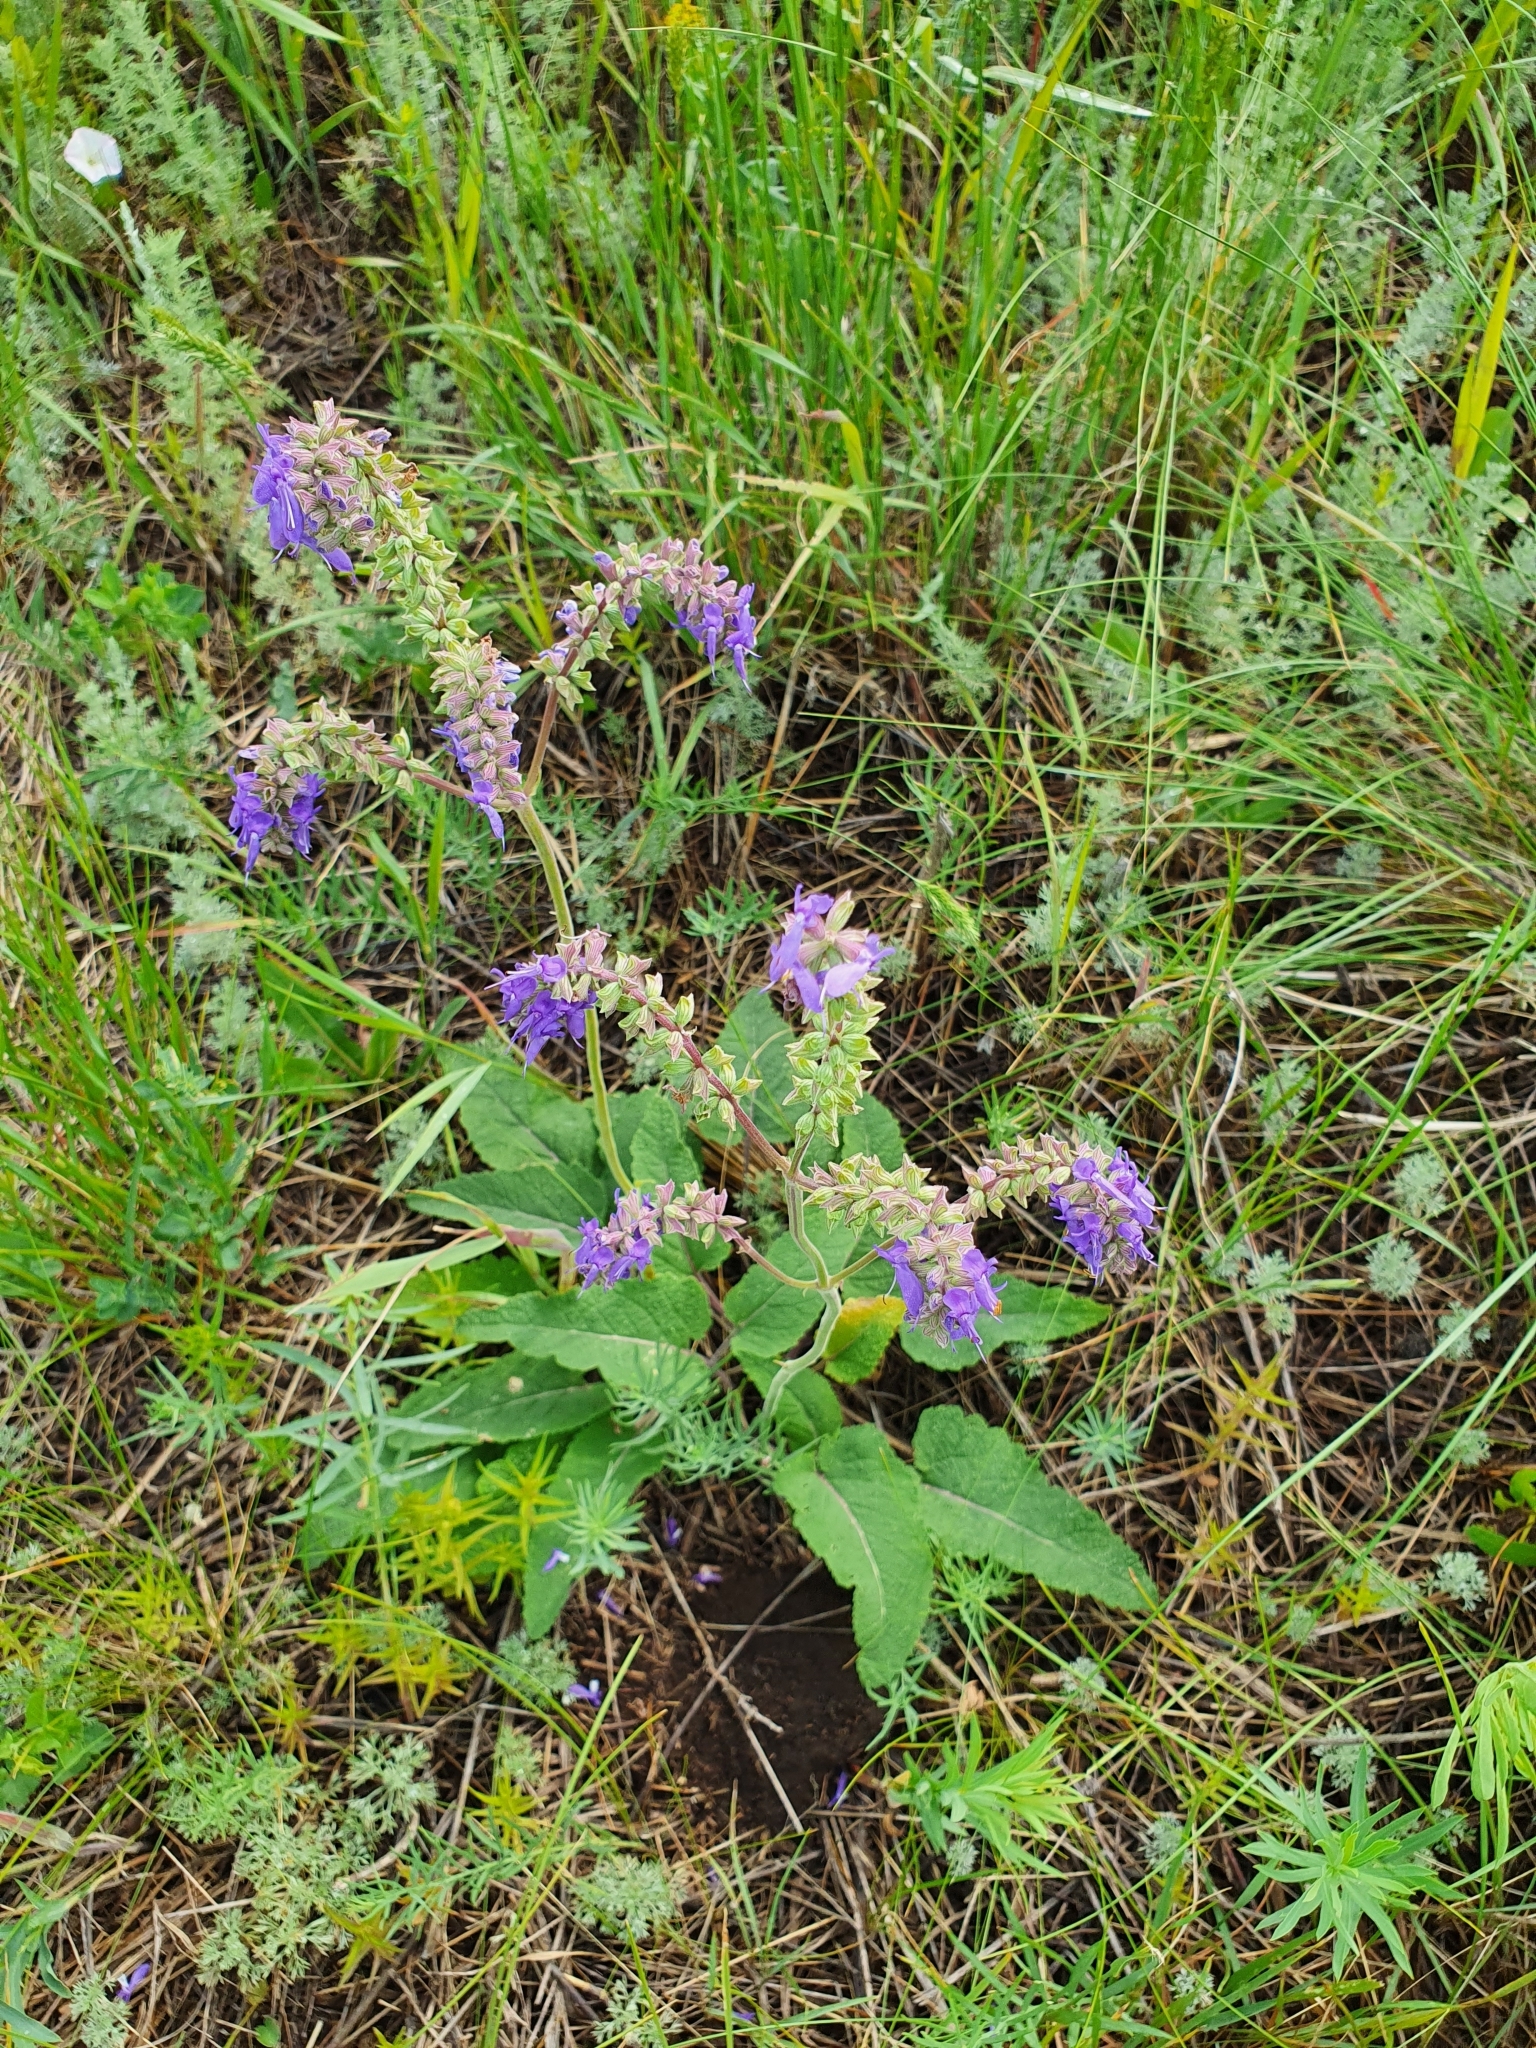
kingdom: Plantae
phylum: Tracheophyta
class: Magnoliopsida
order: Lamiales
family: Lamiaceae
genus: Salvia
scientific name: Salvia nutans
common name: Nodding sage
